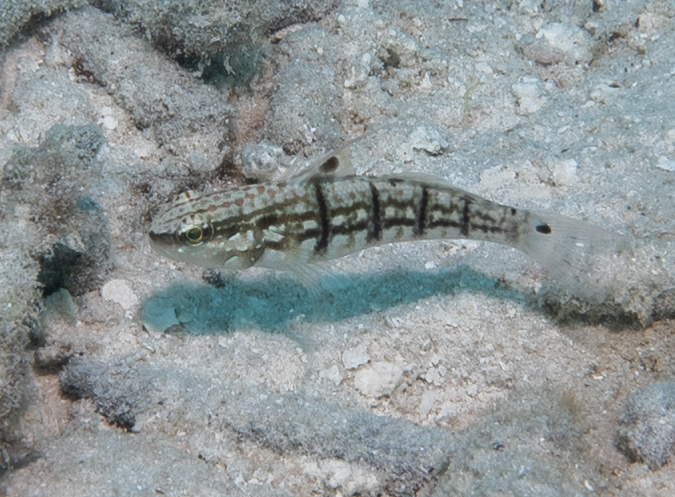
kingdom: Animalia
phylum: Chordata
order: Perciformes
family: Gobiidae
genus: Amblygobius
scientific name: Amblygobius semicinctus
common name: Halfbarred goby
